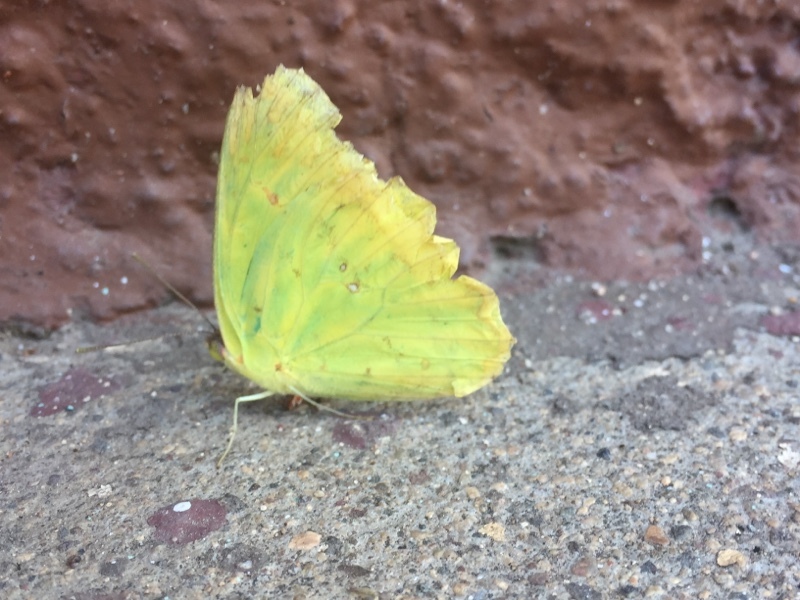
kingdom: Animalia
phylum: Arthropoda
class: Insecta
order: Lepidoptera
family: Pieridae
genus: Phoebis
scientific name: Phoebis sennae
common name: Cloudless sulphur
